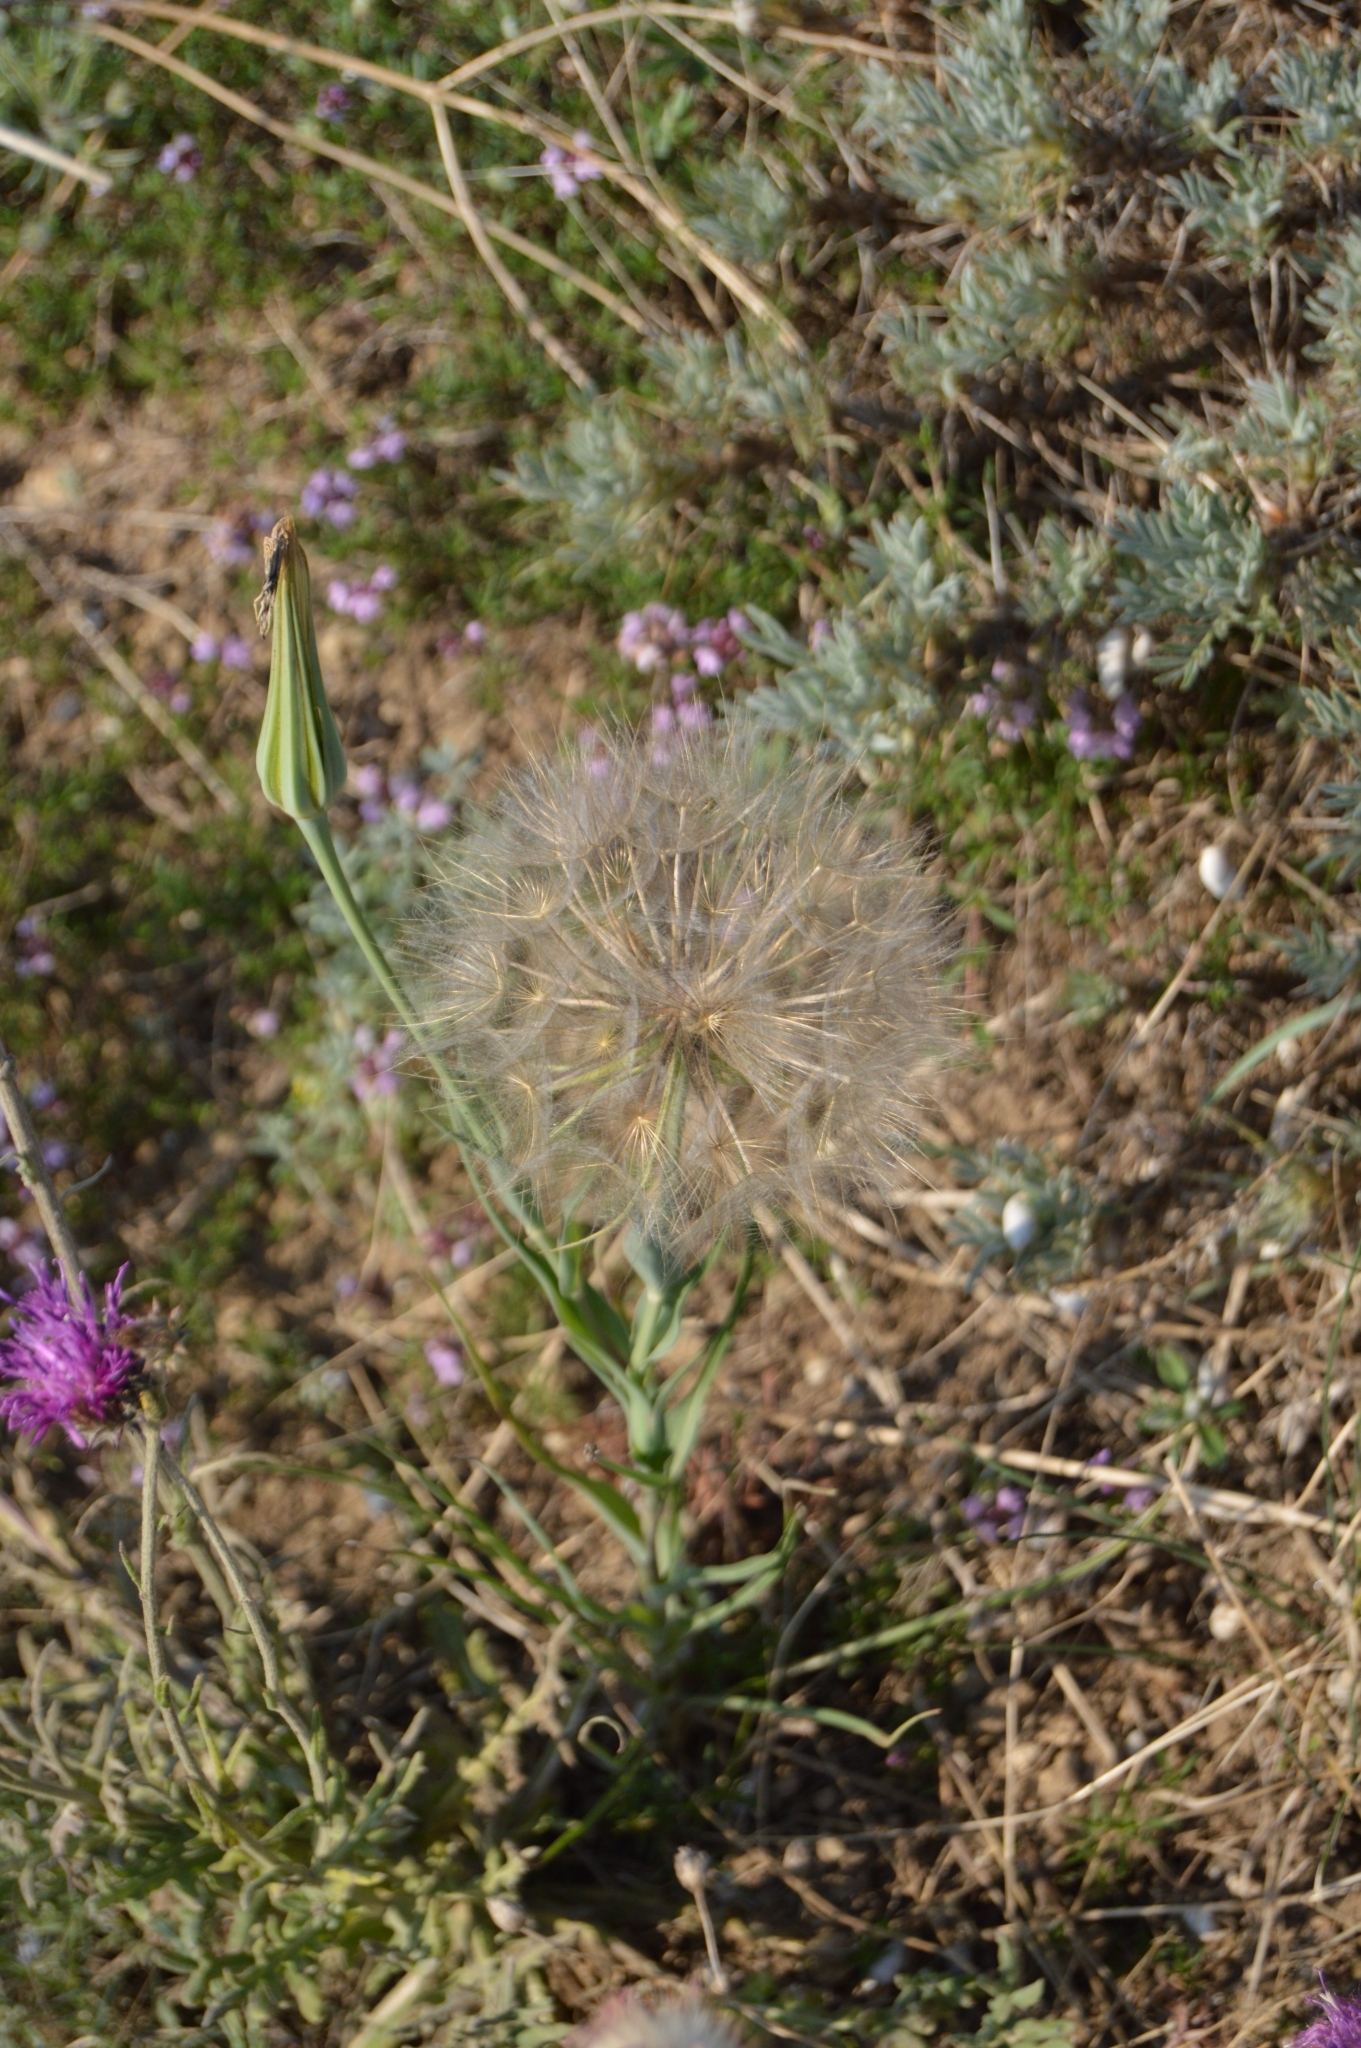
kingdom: Plantae
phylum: Tracheophyta
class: Magnoliopsida
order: Asterales
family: Asteraceae
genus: Tragopogon
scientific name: Tragopogon dubius
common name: Yellow salsify
